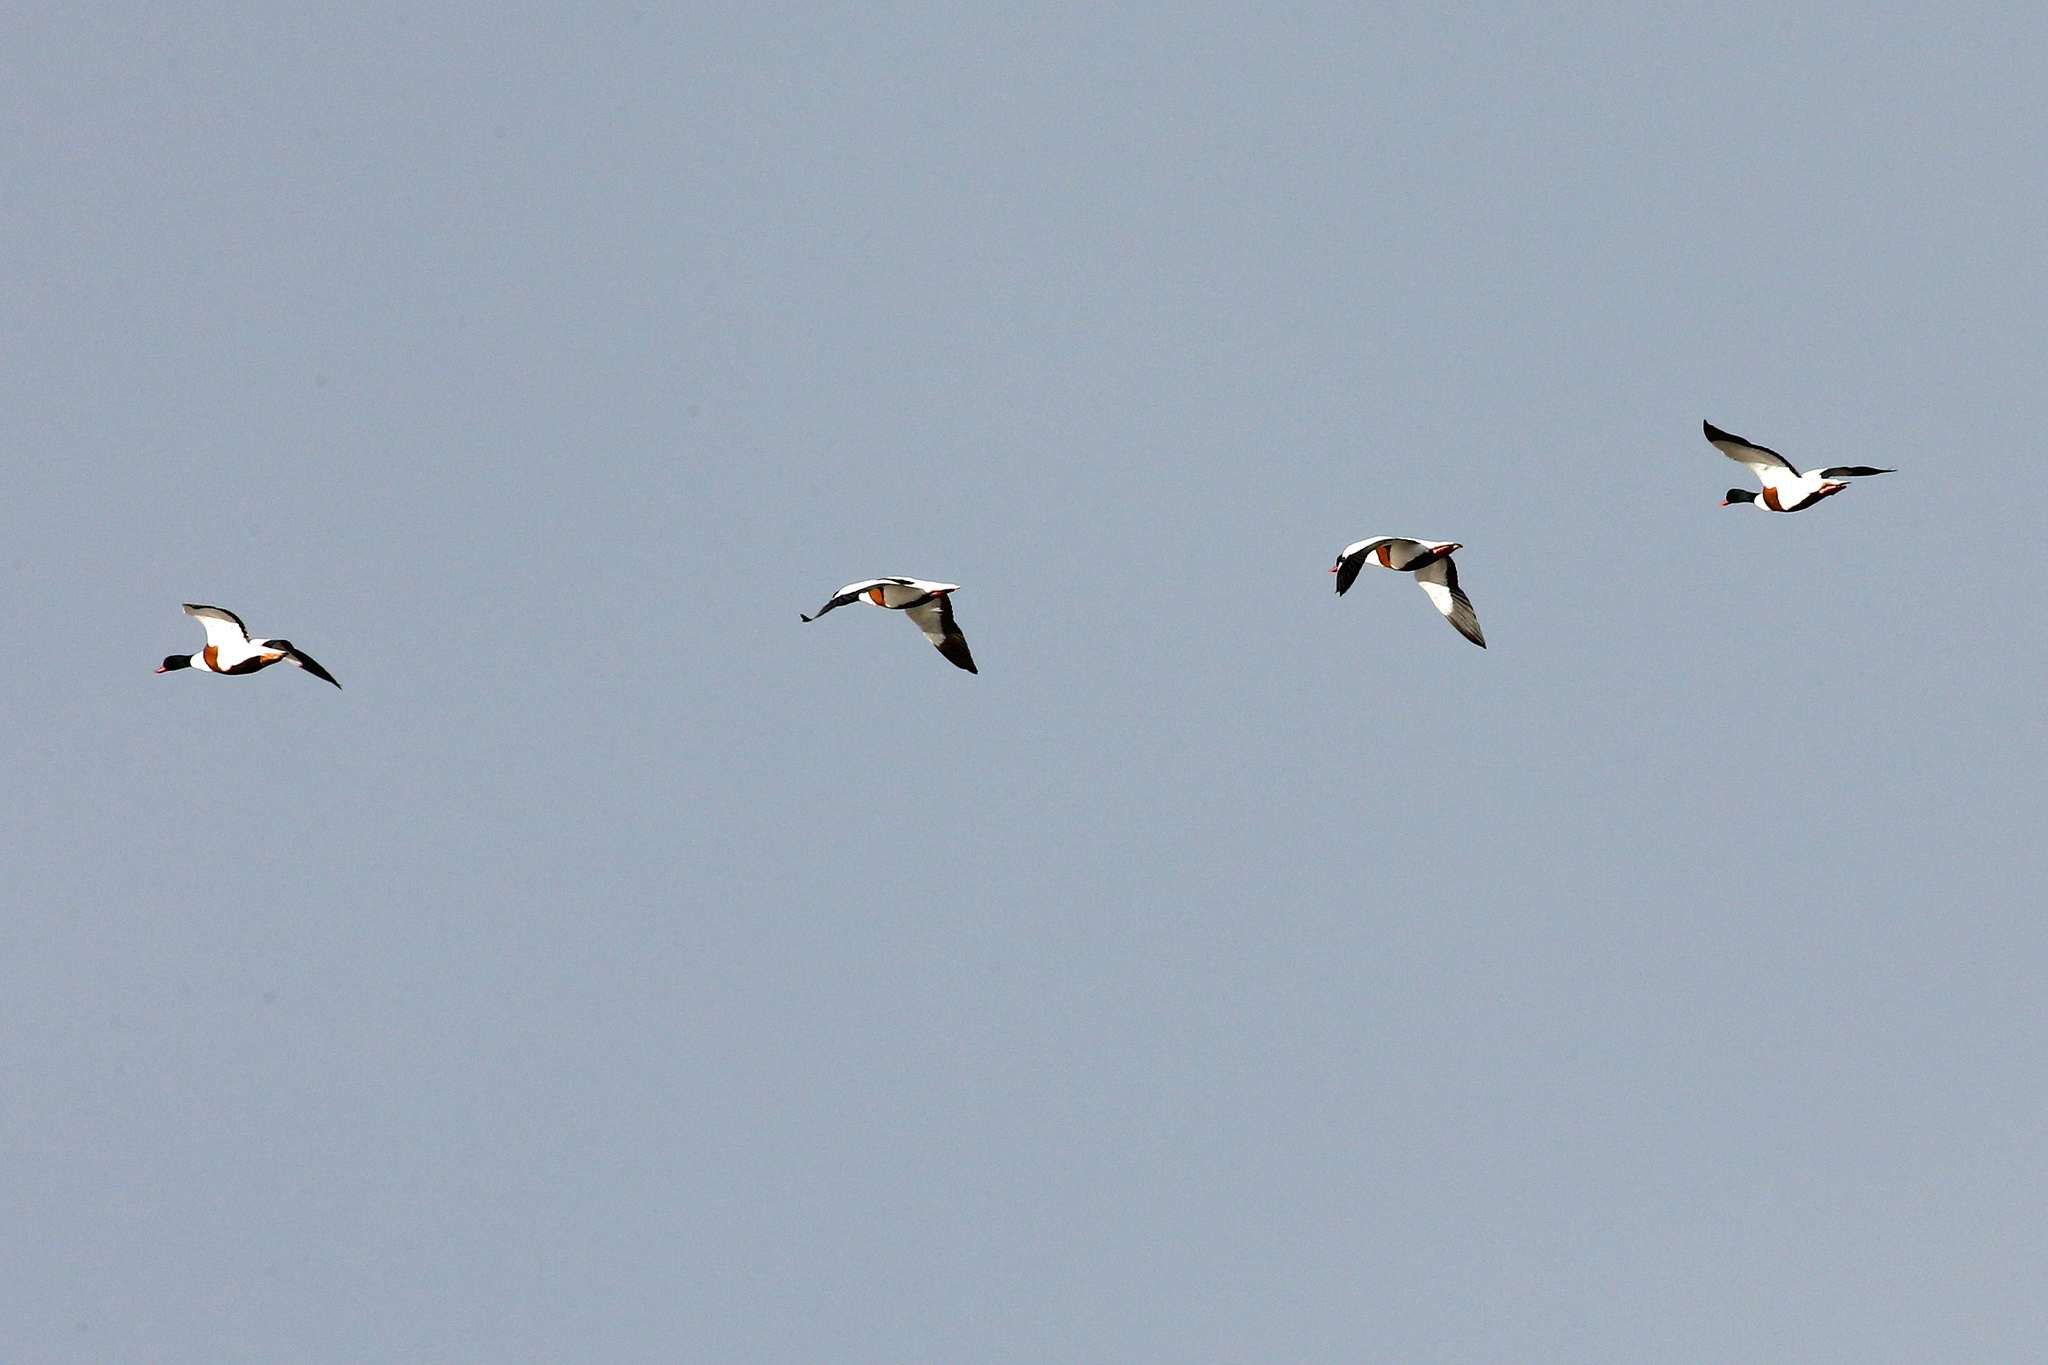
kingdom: Animalia
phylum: Chordata
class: Aves
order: Anseriformes
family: Anatidae
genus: Tadorna
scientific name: Tadorna tadorna
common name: Common shelduck
